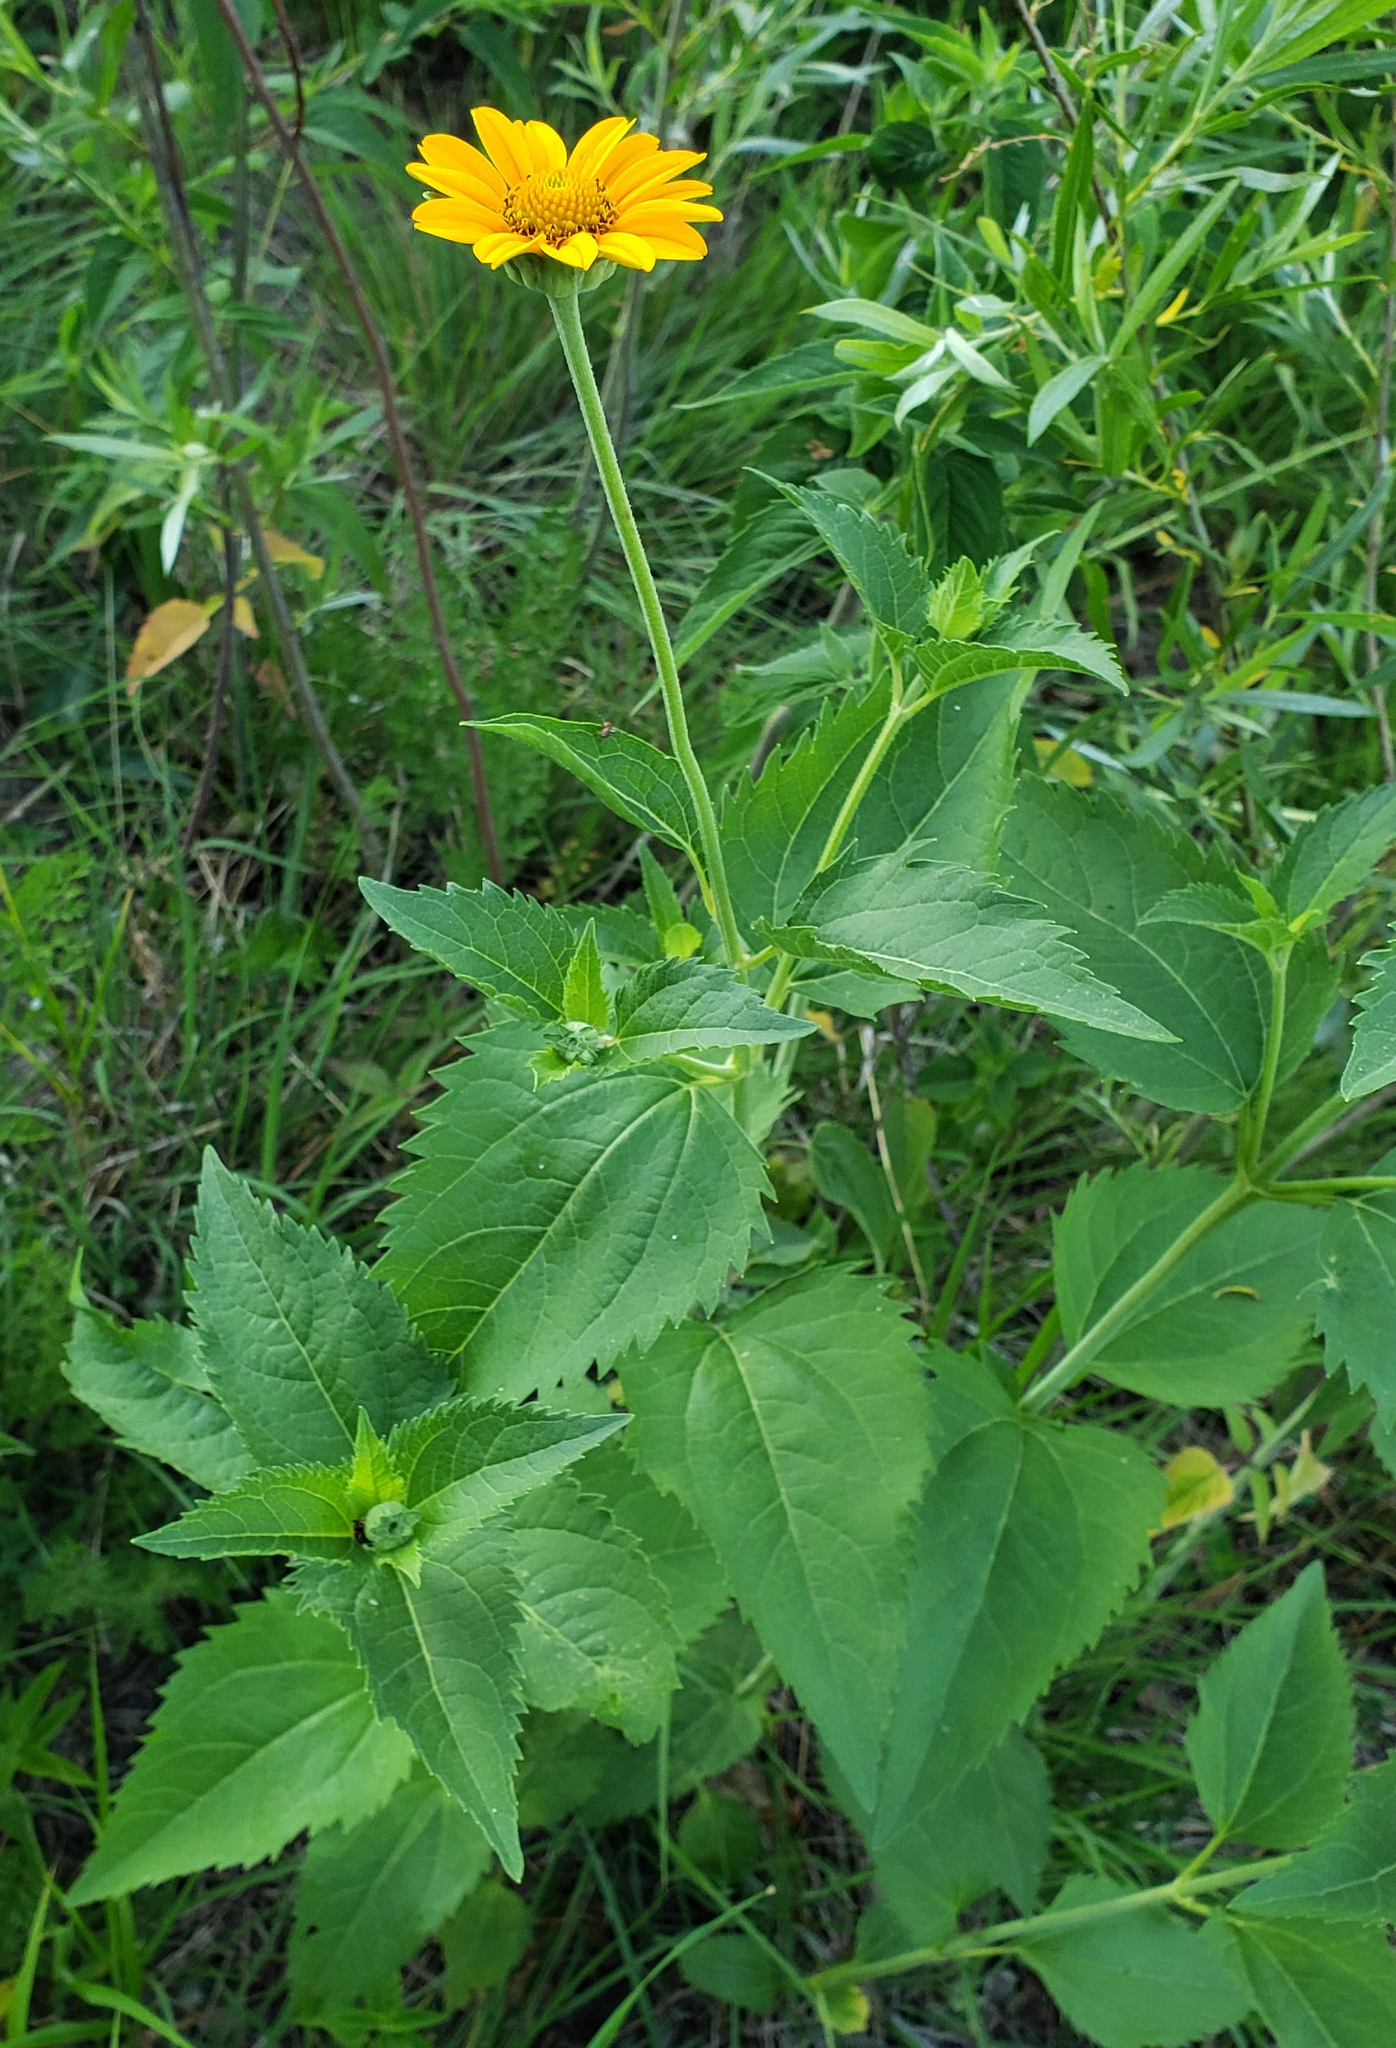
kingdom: Plantae
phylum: Tracheophyta
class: Magnoliopsida
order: Asterales
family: Asteraceae
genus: Heliopsis
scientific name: Heliopsis helianthoides
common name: False sunflower
